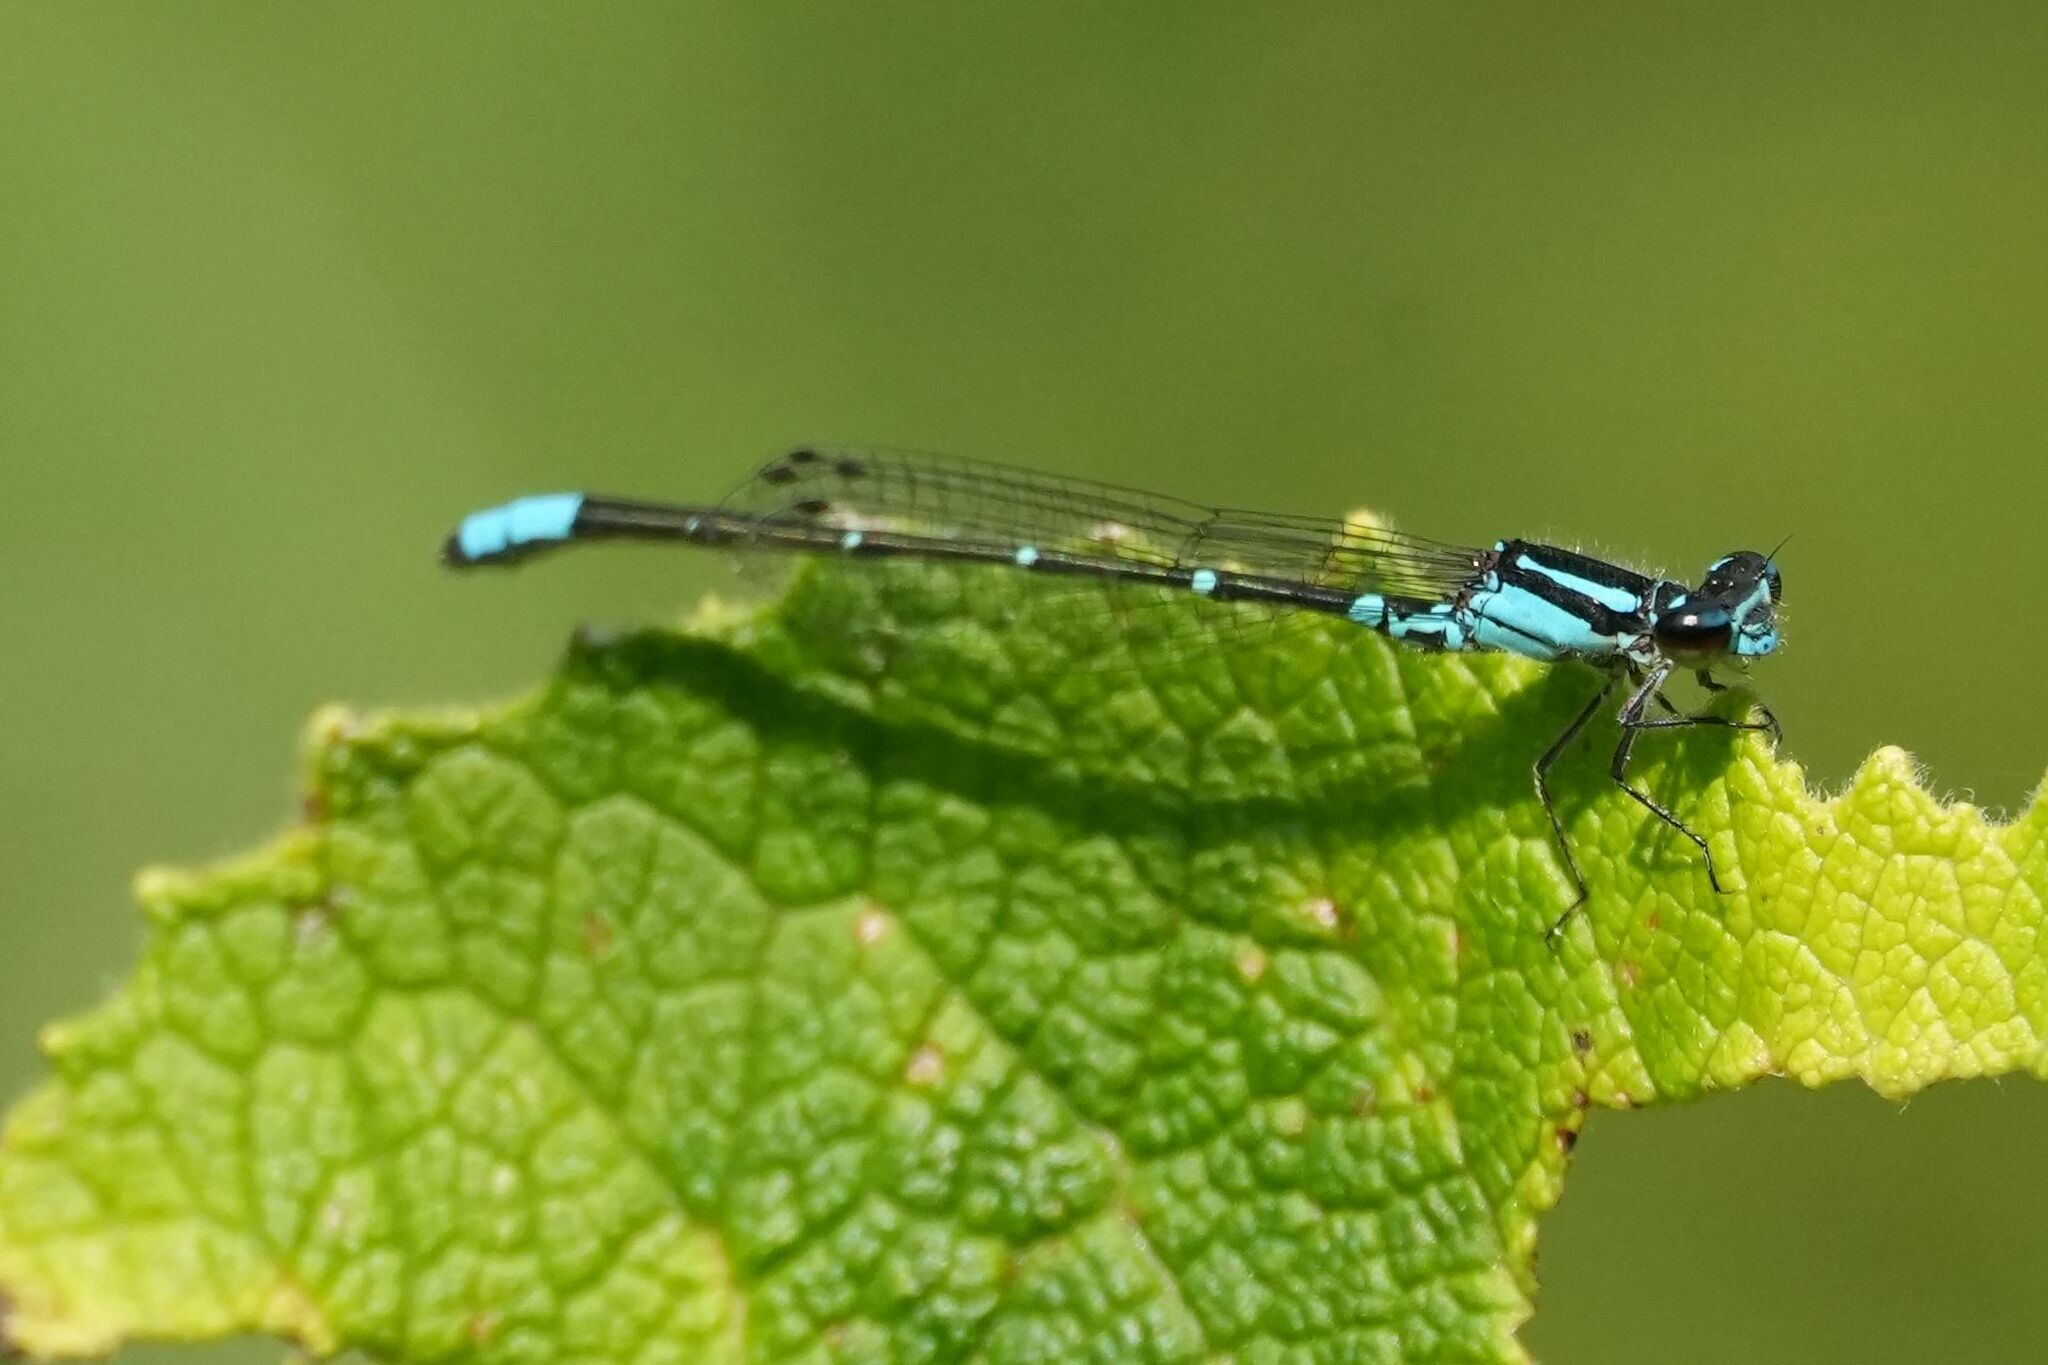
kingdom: Animalia
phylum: Arthropoda
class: Insecta
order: Odonata
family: Coenagrionidae
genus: Enallagma
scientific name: Enallagma geminatum
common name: Skimming bluet
